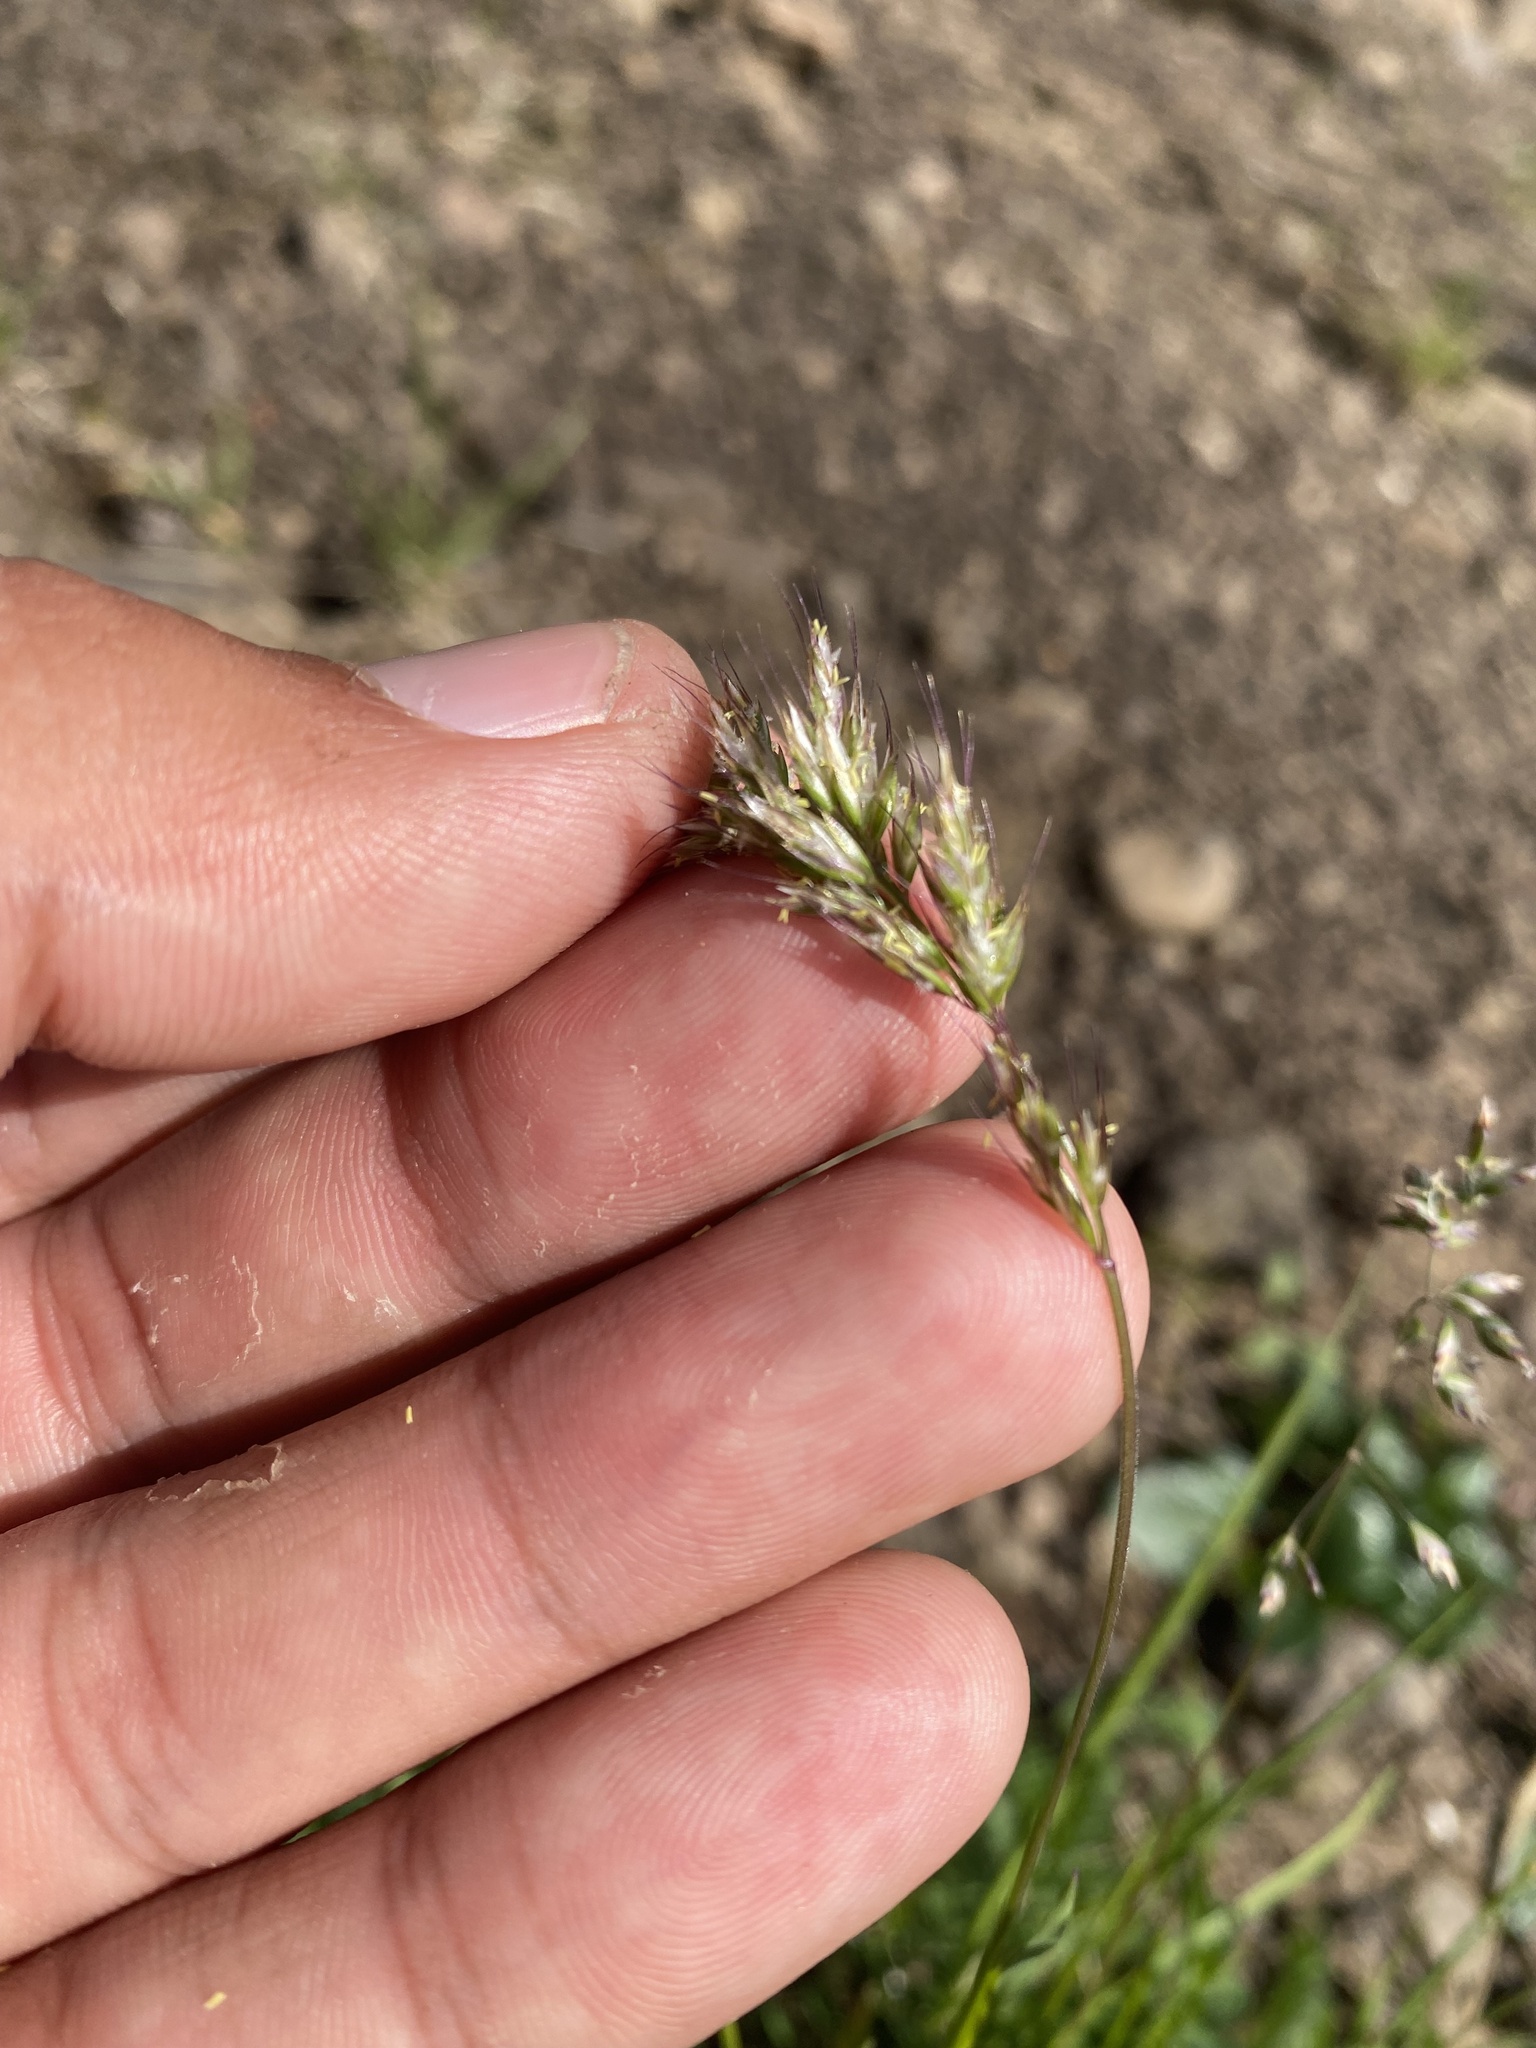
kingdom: Plantae
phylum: Tracheophyta
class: Liliopsida
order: Poales
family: Poaceae
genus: Sibirotrisetum
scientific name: Sibirotrisetum
